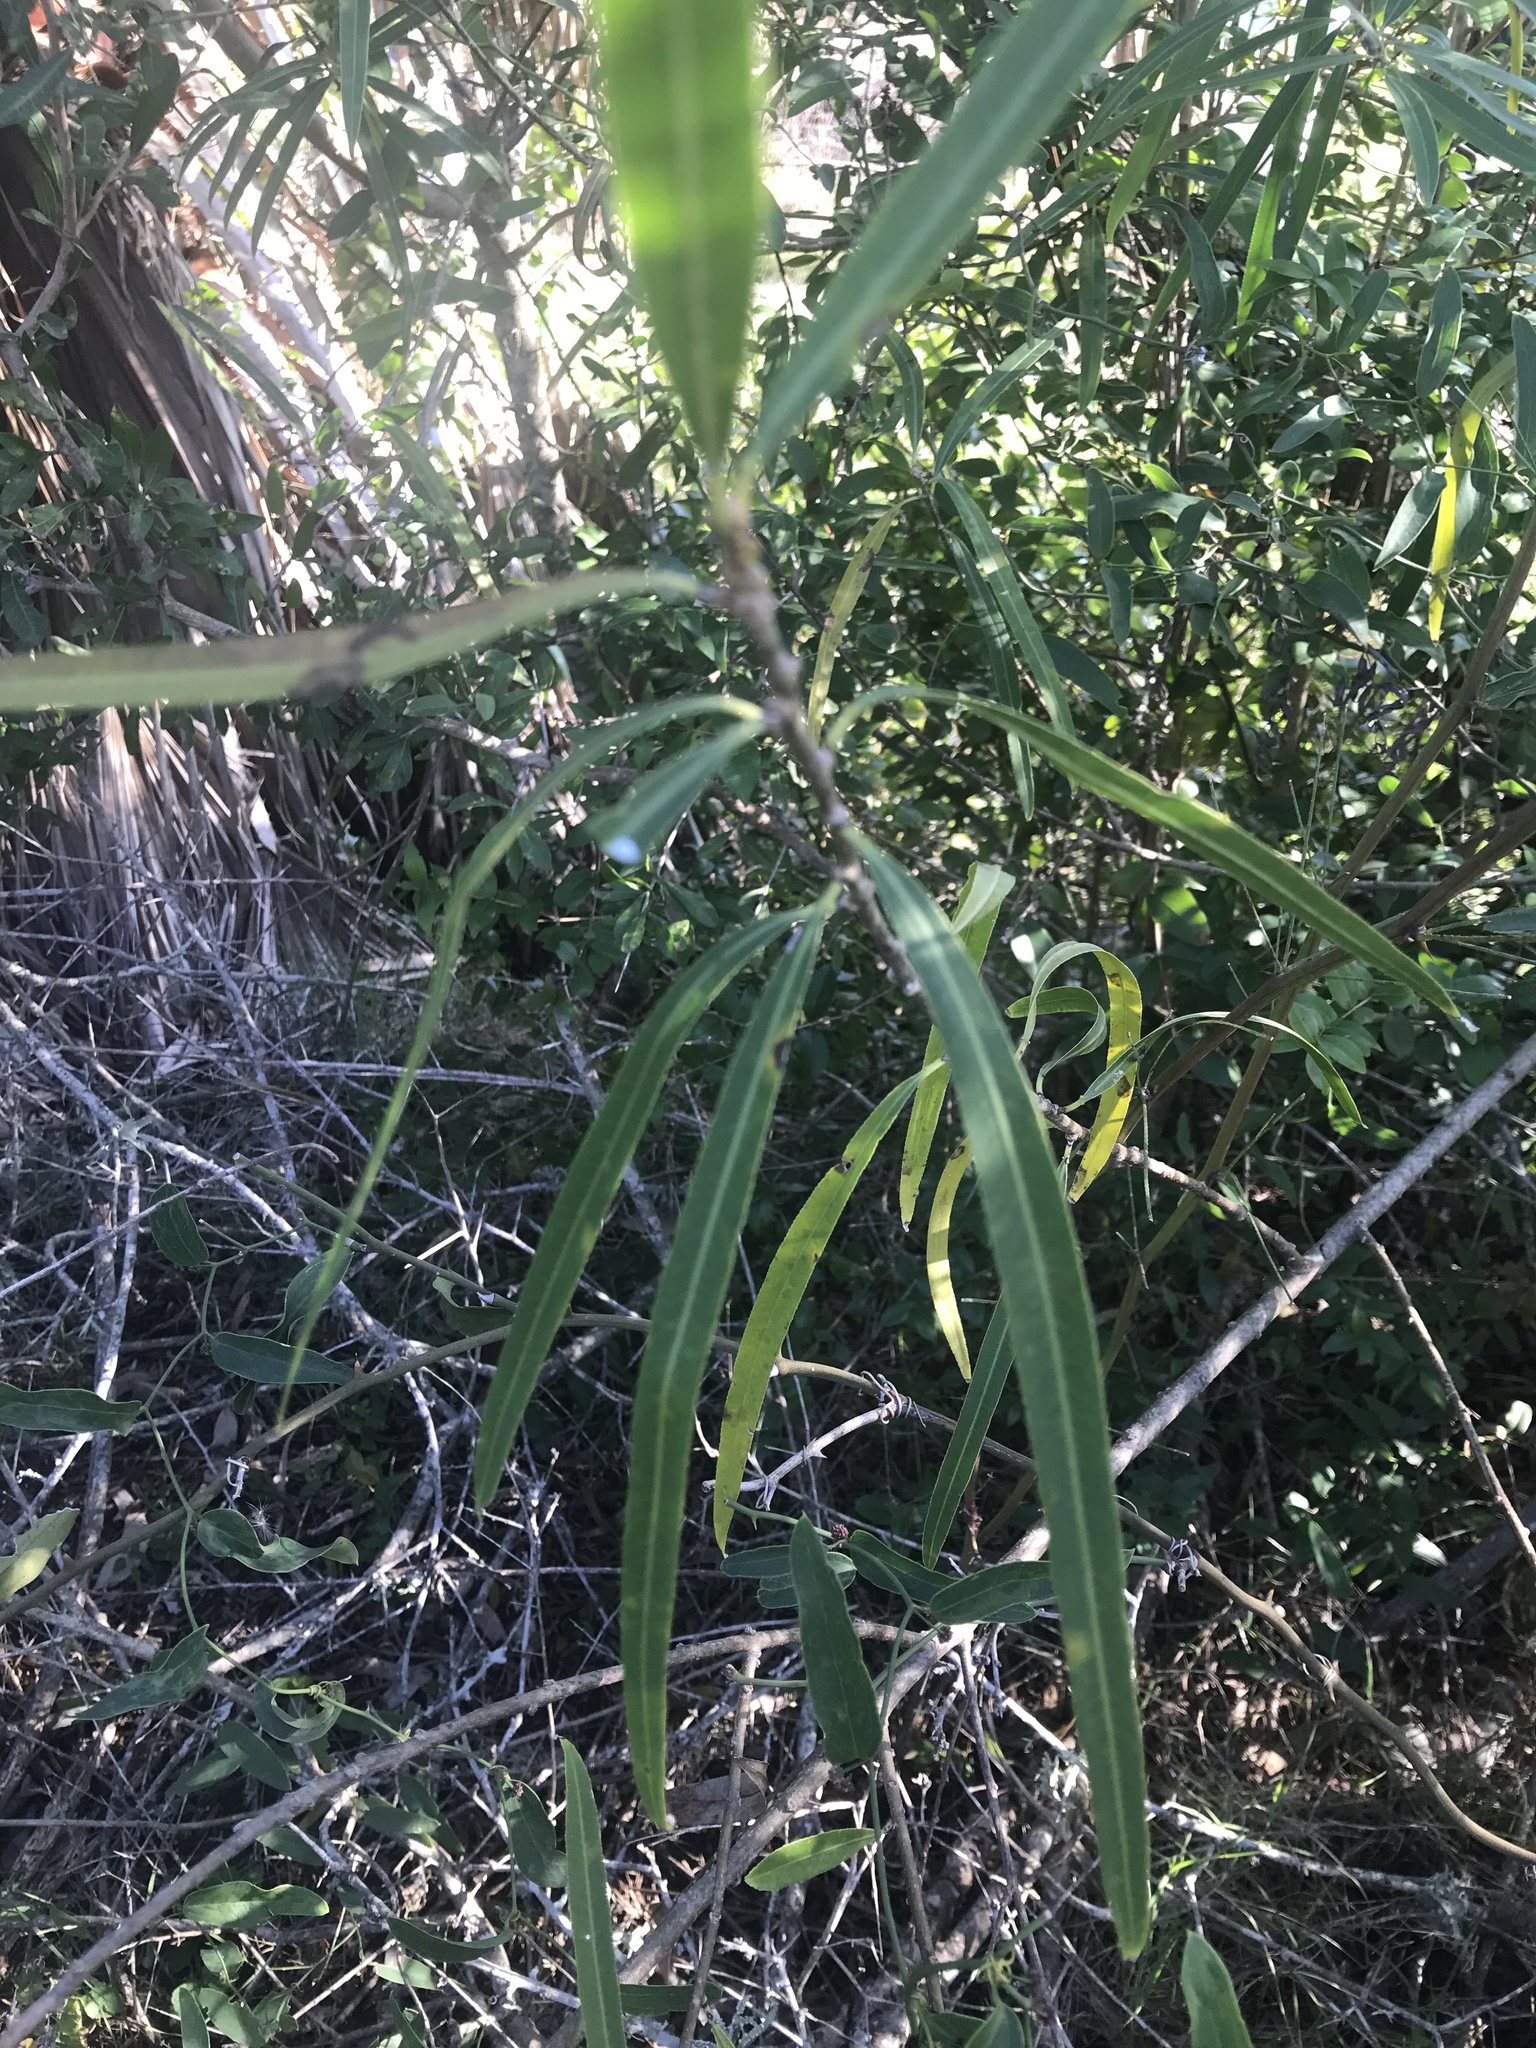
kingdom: Plantae
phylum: Tracheophyta
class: Magnoliopsida
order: Malpighiales
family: Euphorbiaceae
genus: Sapium
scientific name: Sapium haematospermum
